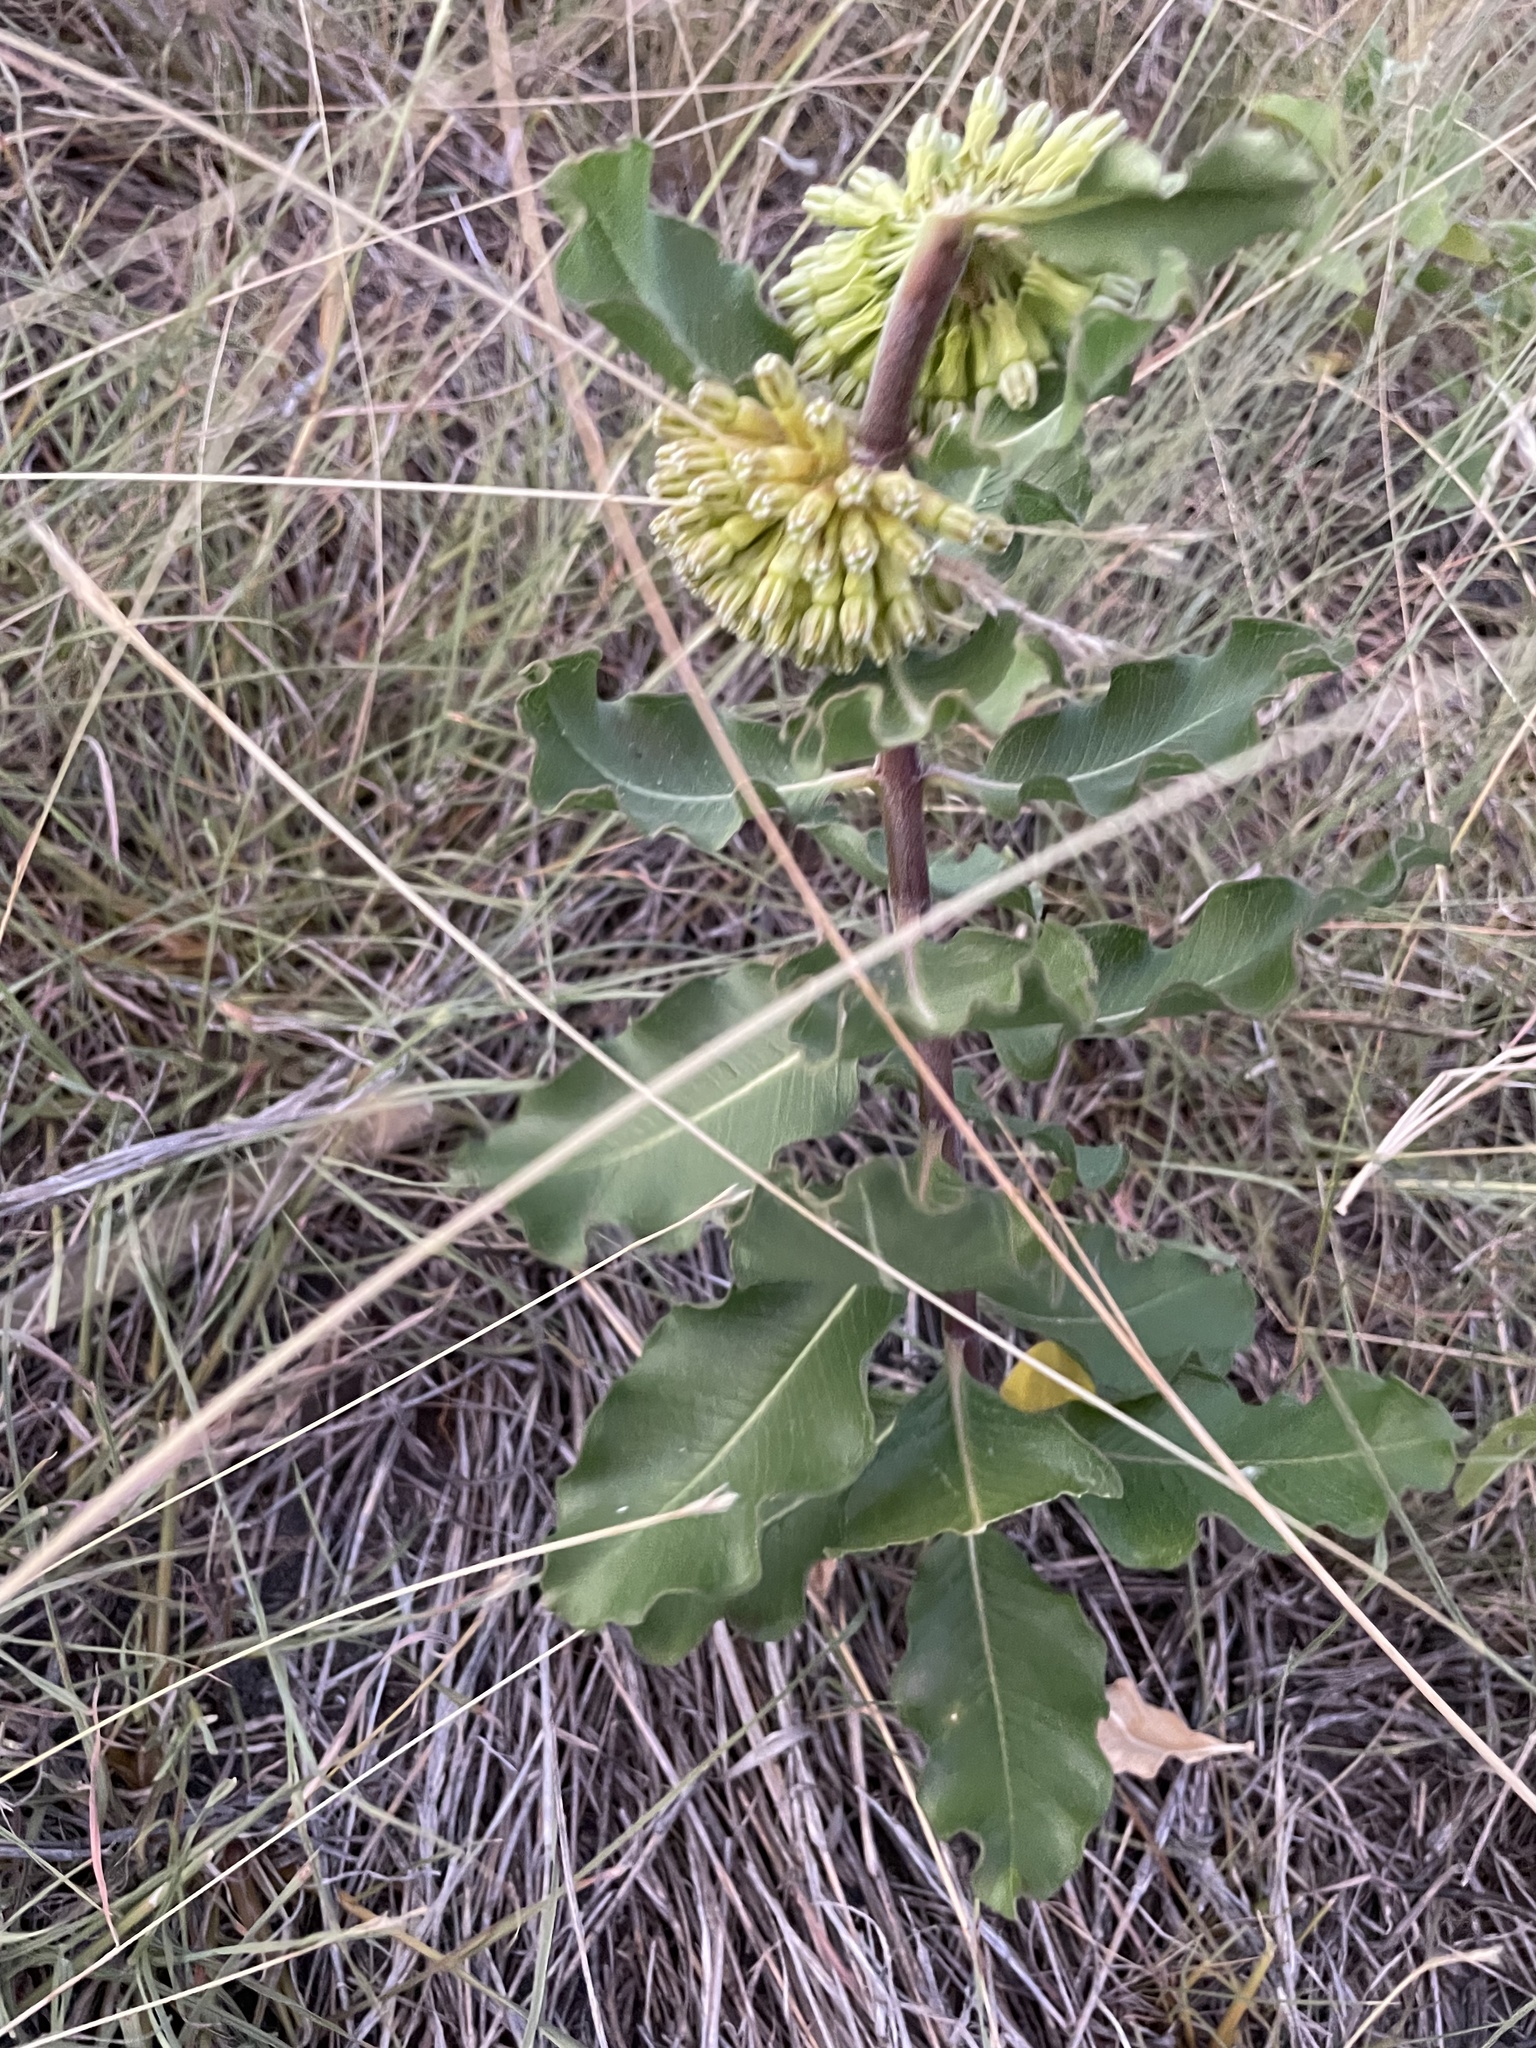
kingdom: Plantae
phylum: Tracheophyta
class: Magnoliopsida
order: Gentianales
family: Apocynaceae
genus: Asclepias
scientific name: Asclepias viridiflora
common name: Green comet milkweed
